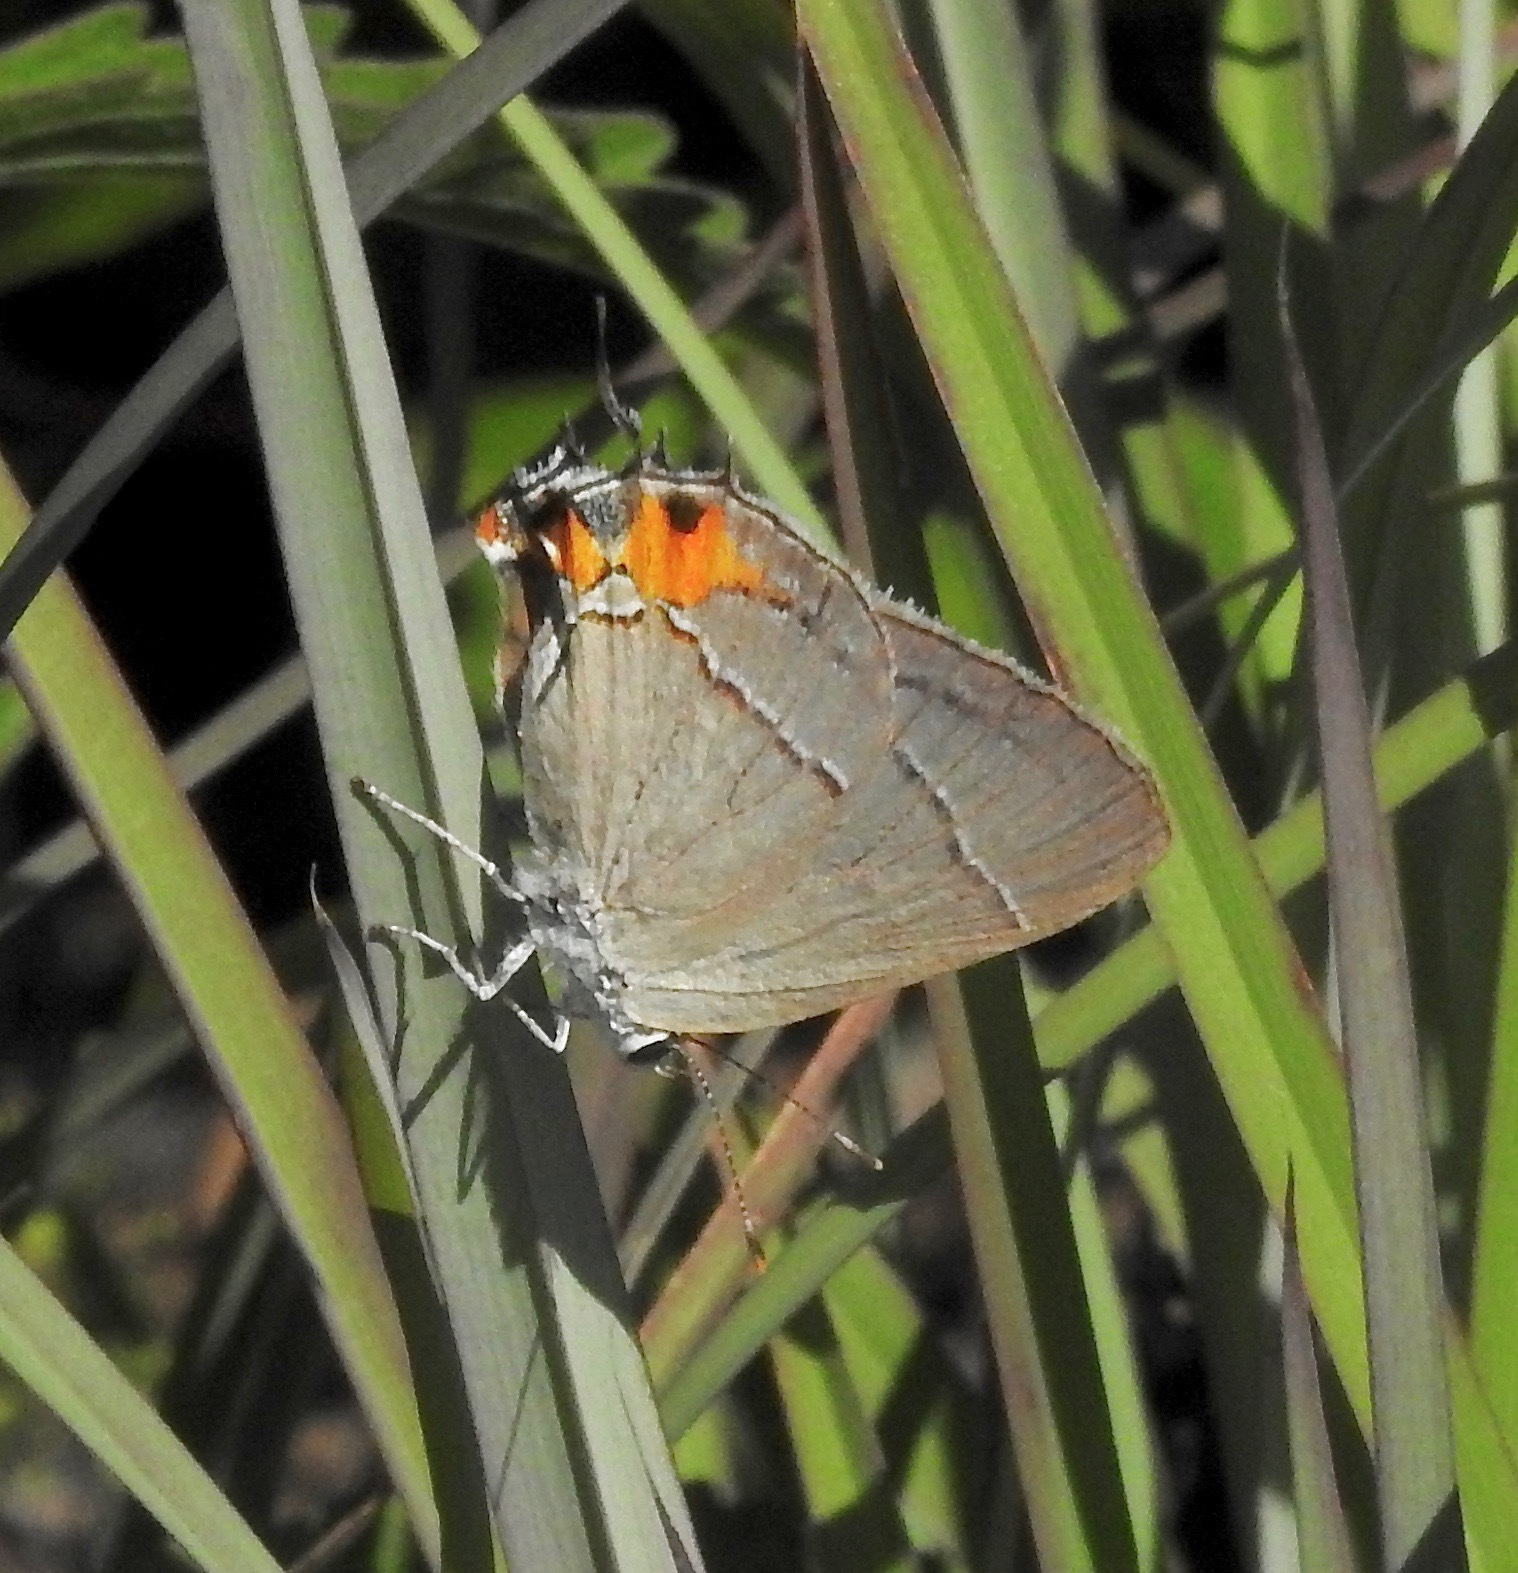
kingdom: Animalia
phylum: Arthropoda
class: Insecta
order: Lepidoptera
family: Lycaenidae
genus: Strymon
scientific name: Strymon melinus
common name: Gray hairstreak
